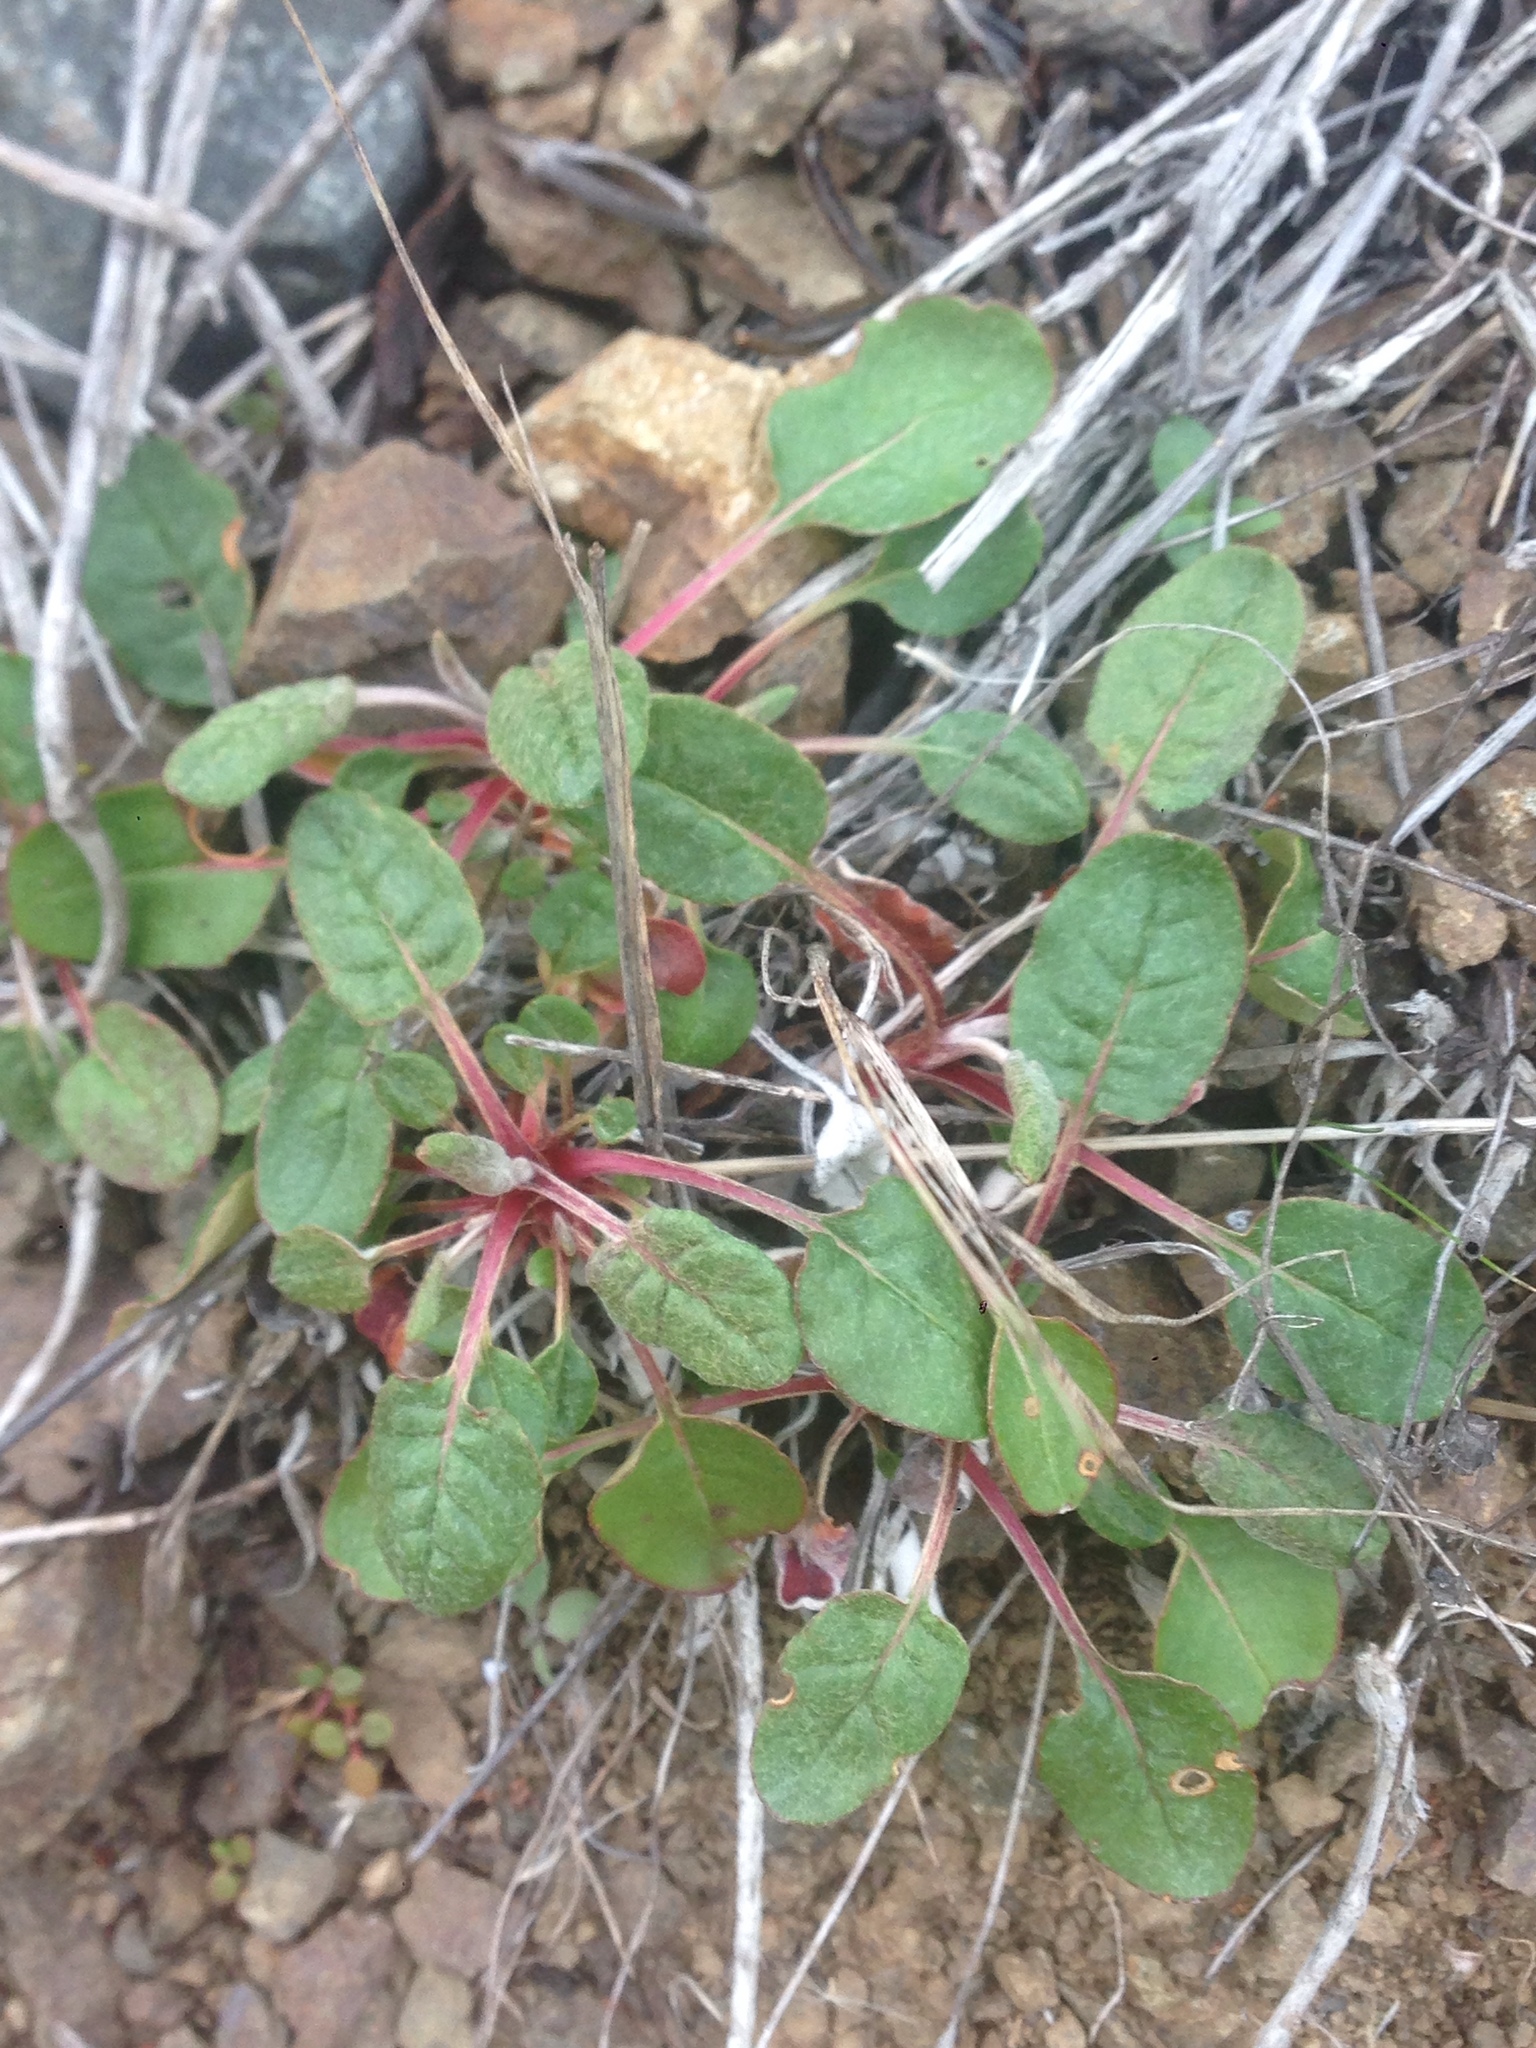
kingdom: Plantae
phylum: Tracheophyta
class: Magnoliopsida
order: Caryophyllales
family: Polygonaceae
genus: Eriogonum
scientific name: Eriogonum nudum
